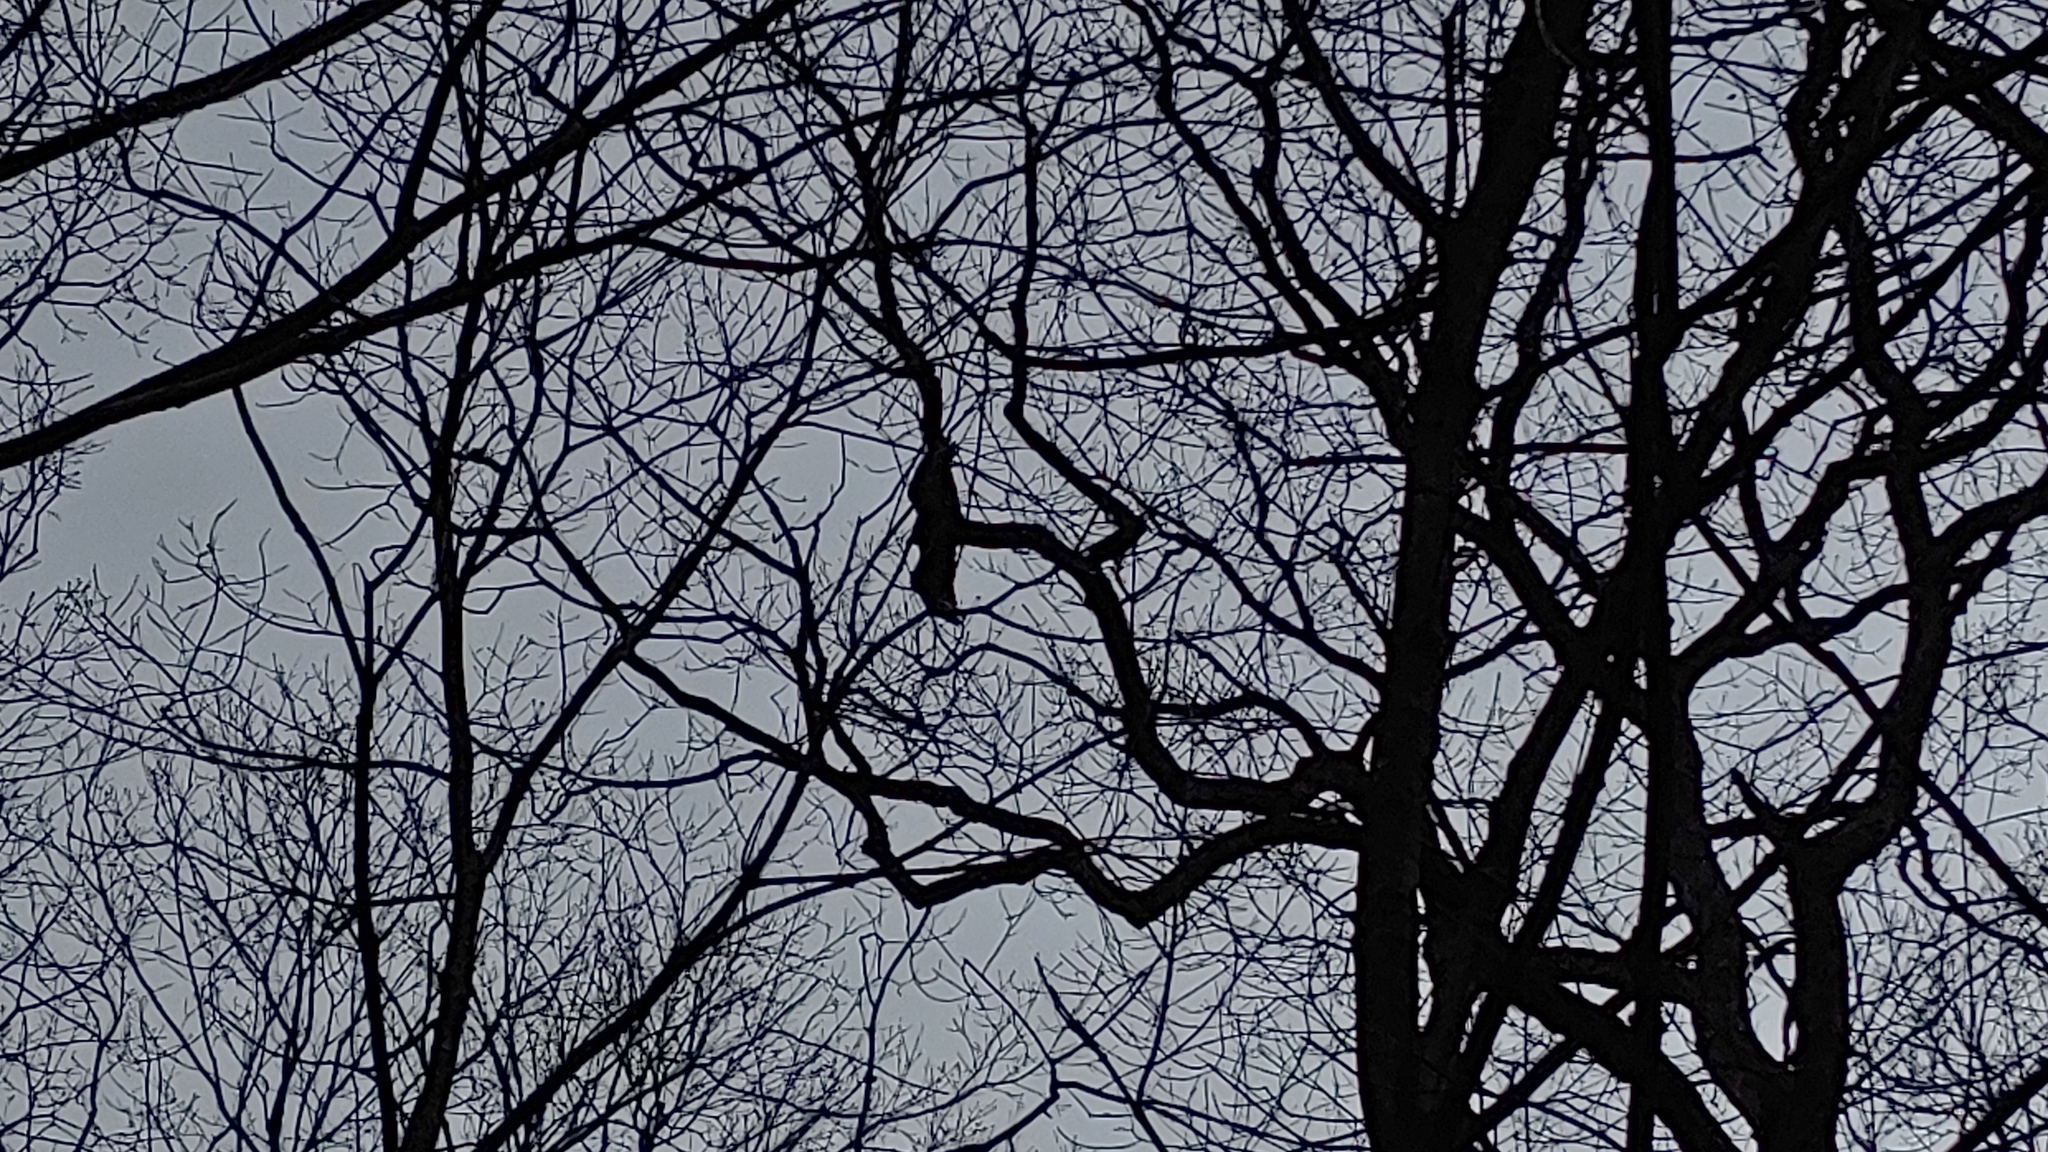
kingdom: Animalia
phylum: Chordata
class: Aves
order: Accipitriformes
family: Cathartidae
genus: Cathartes
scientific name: Cathartes aura
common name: Turkey vulture
